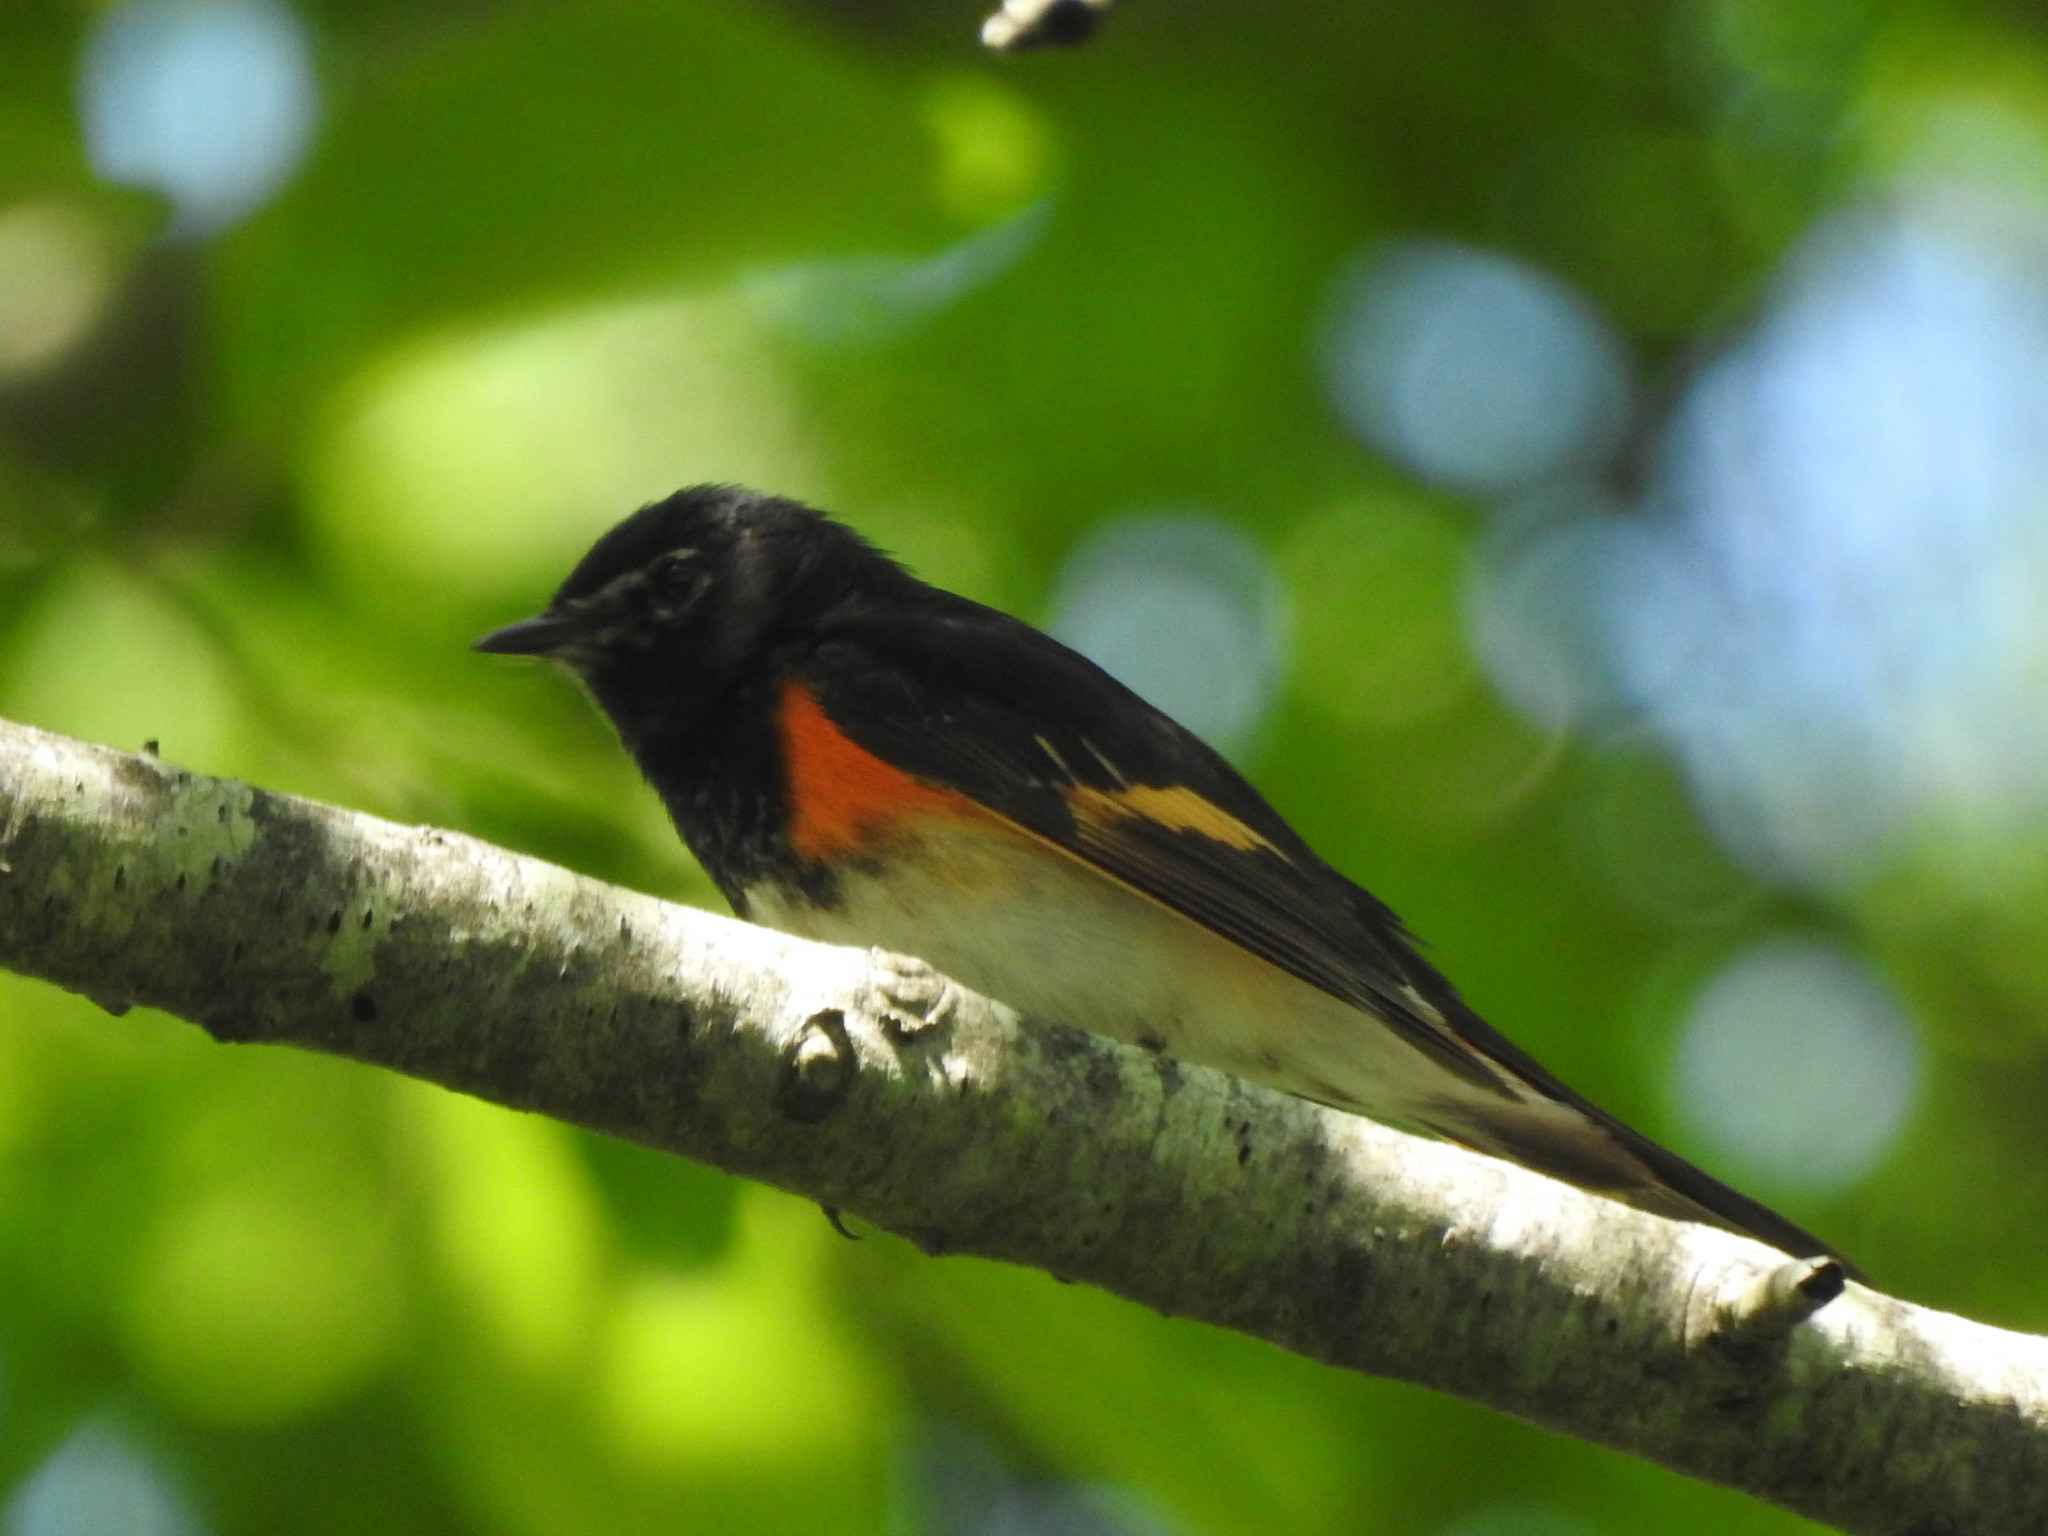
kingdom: Animalia
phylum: Chordata
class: Aves
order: Passeriformes
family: Parulidae
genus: Setophaga
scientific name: Setophaga ruticilla
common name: American redstart
